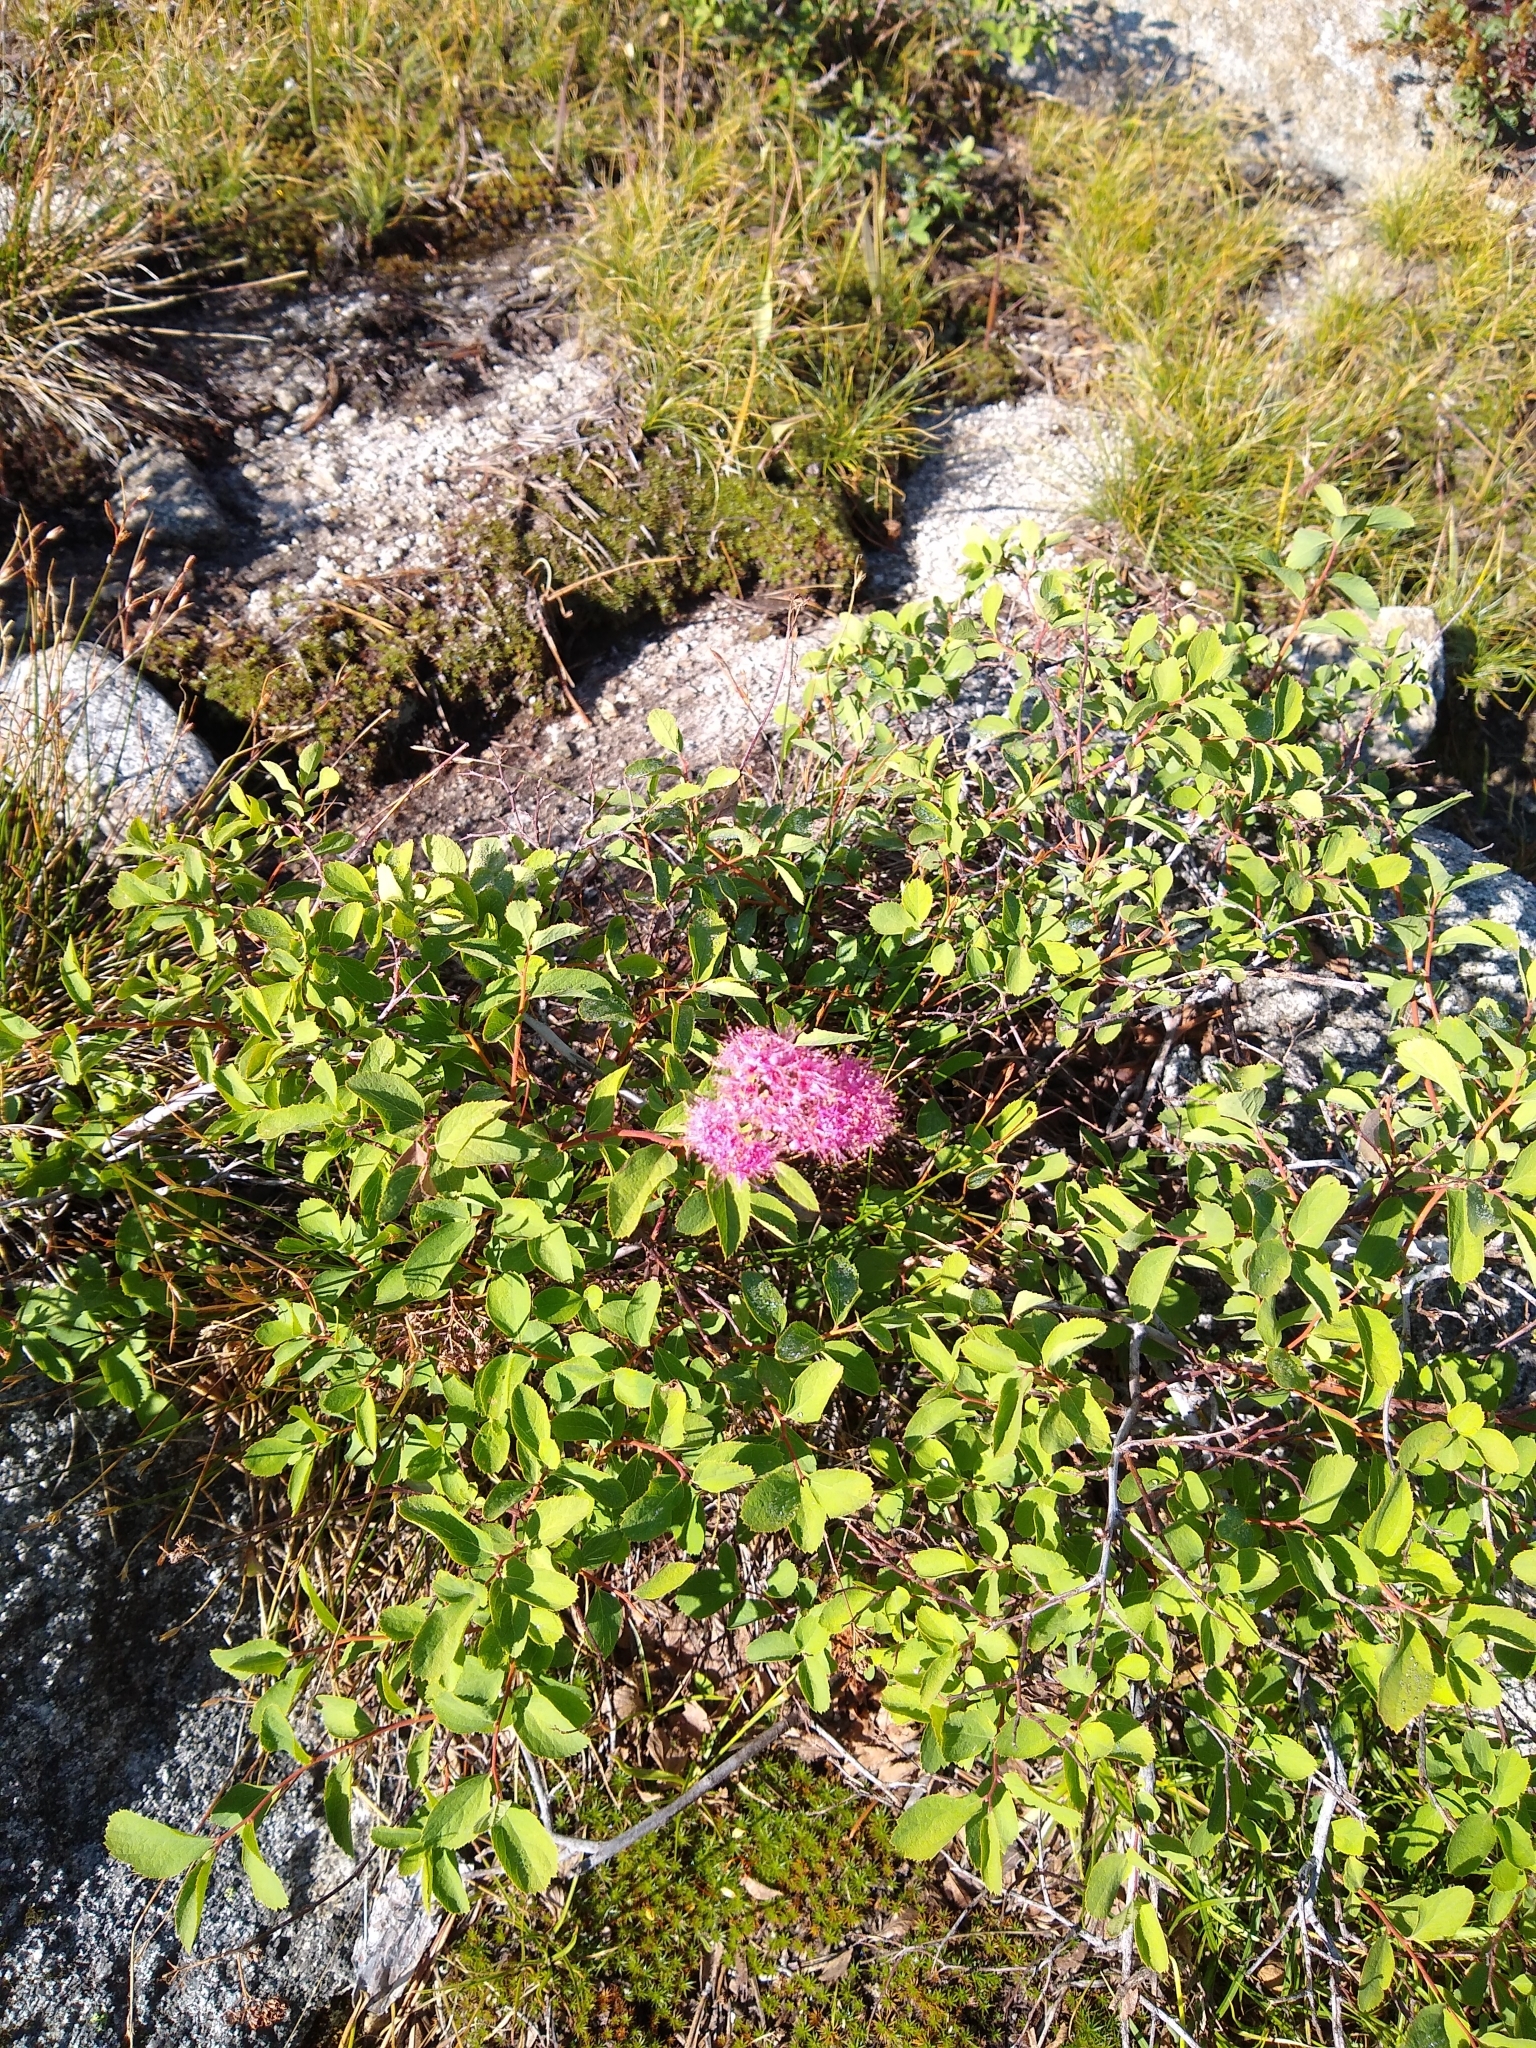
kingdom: Plantae
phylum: Tracheophyta
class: Magnoliopsida
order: Rosales
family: Rosaceae
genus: Spiraea
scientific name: Spiraea splendens
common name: Subalpine meadowsweet
